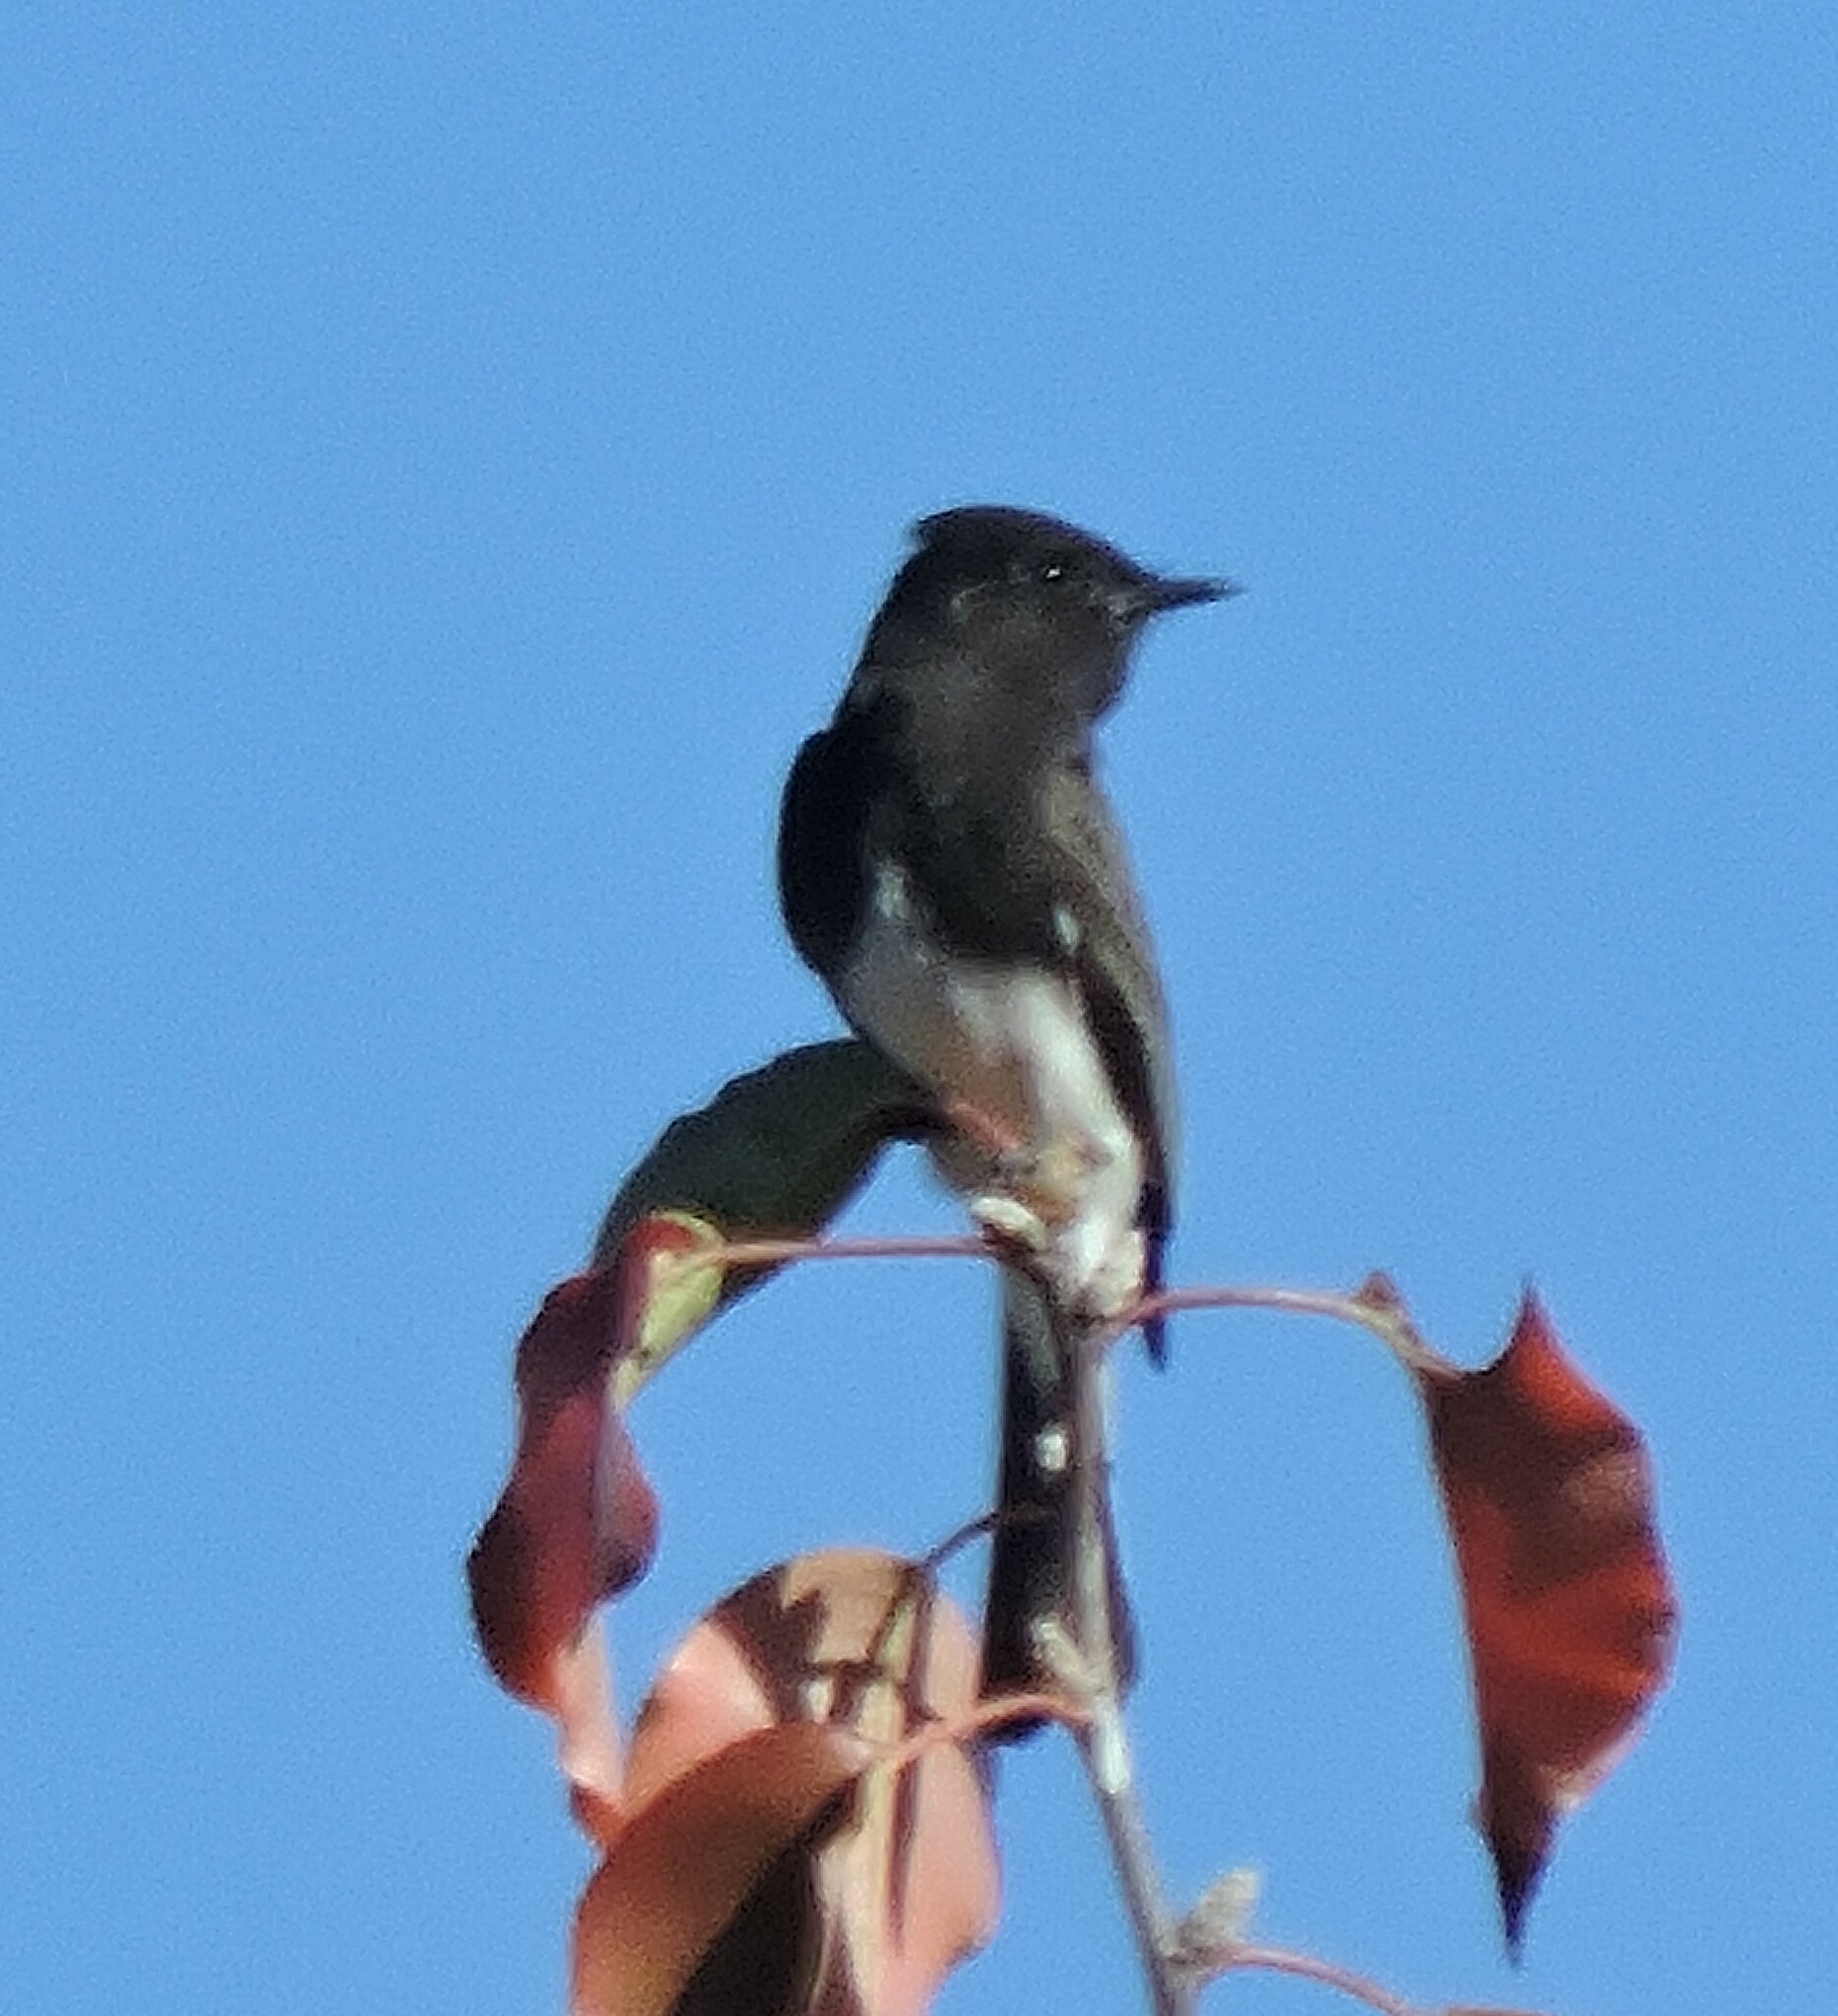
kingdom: Animalia
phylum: Chordata
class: Aves
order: Passeriformes
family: Tyrannidae
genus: Sayornis
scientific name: Sayornis nigricans
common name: Black phoebe
